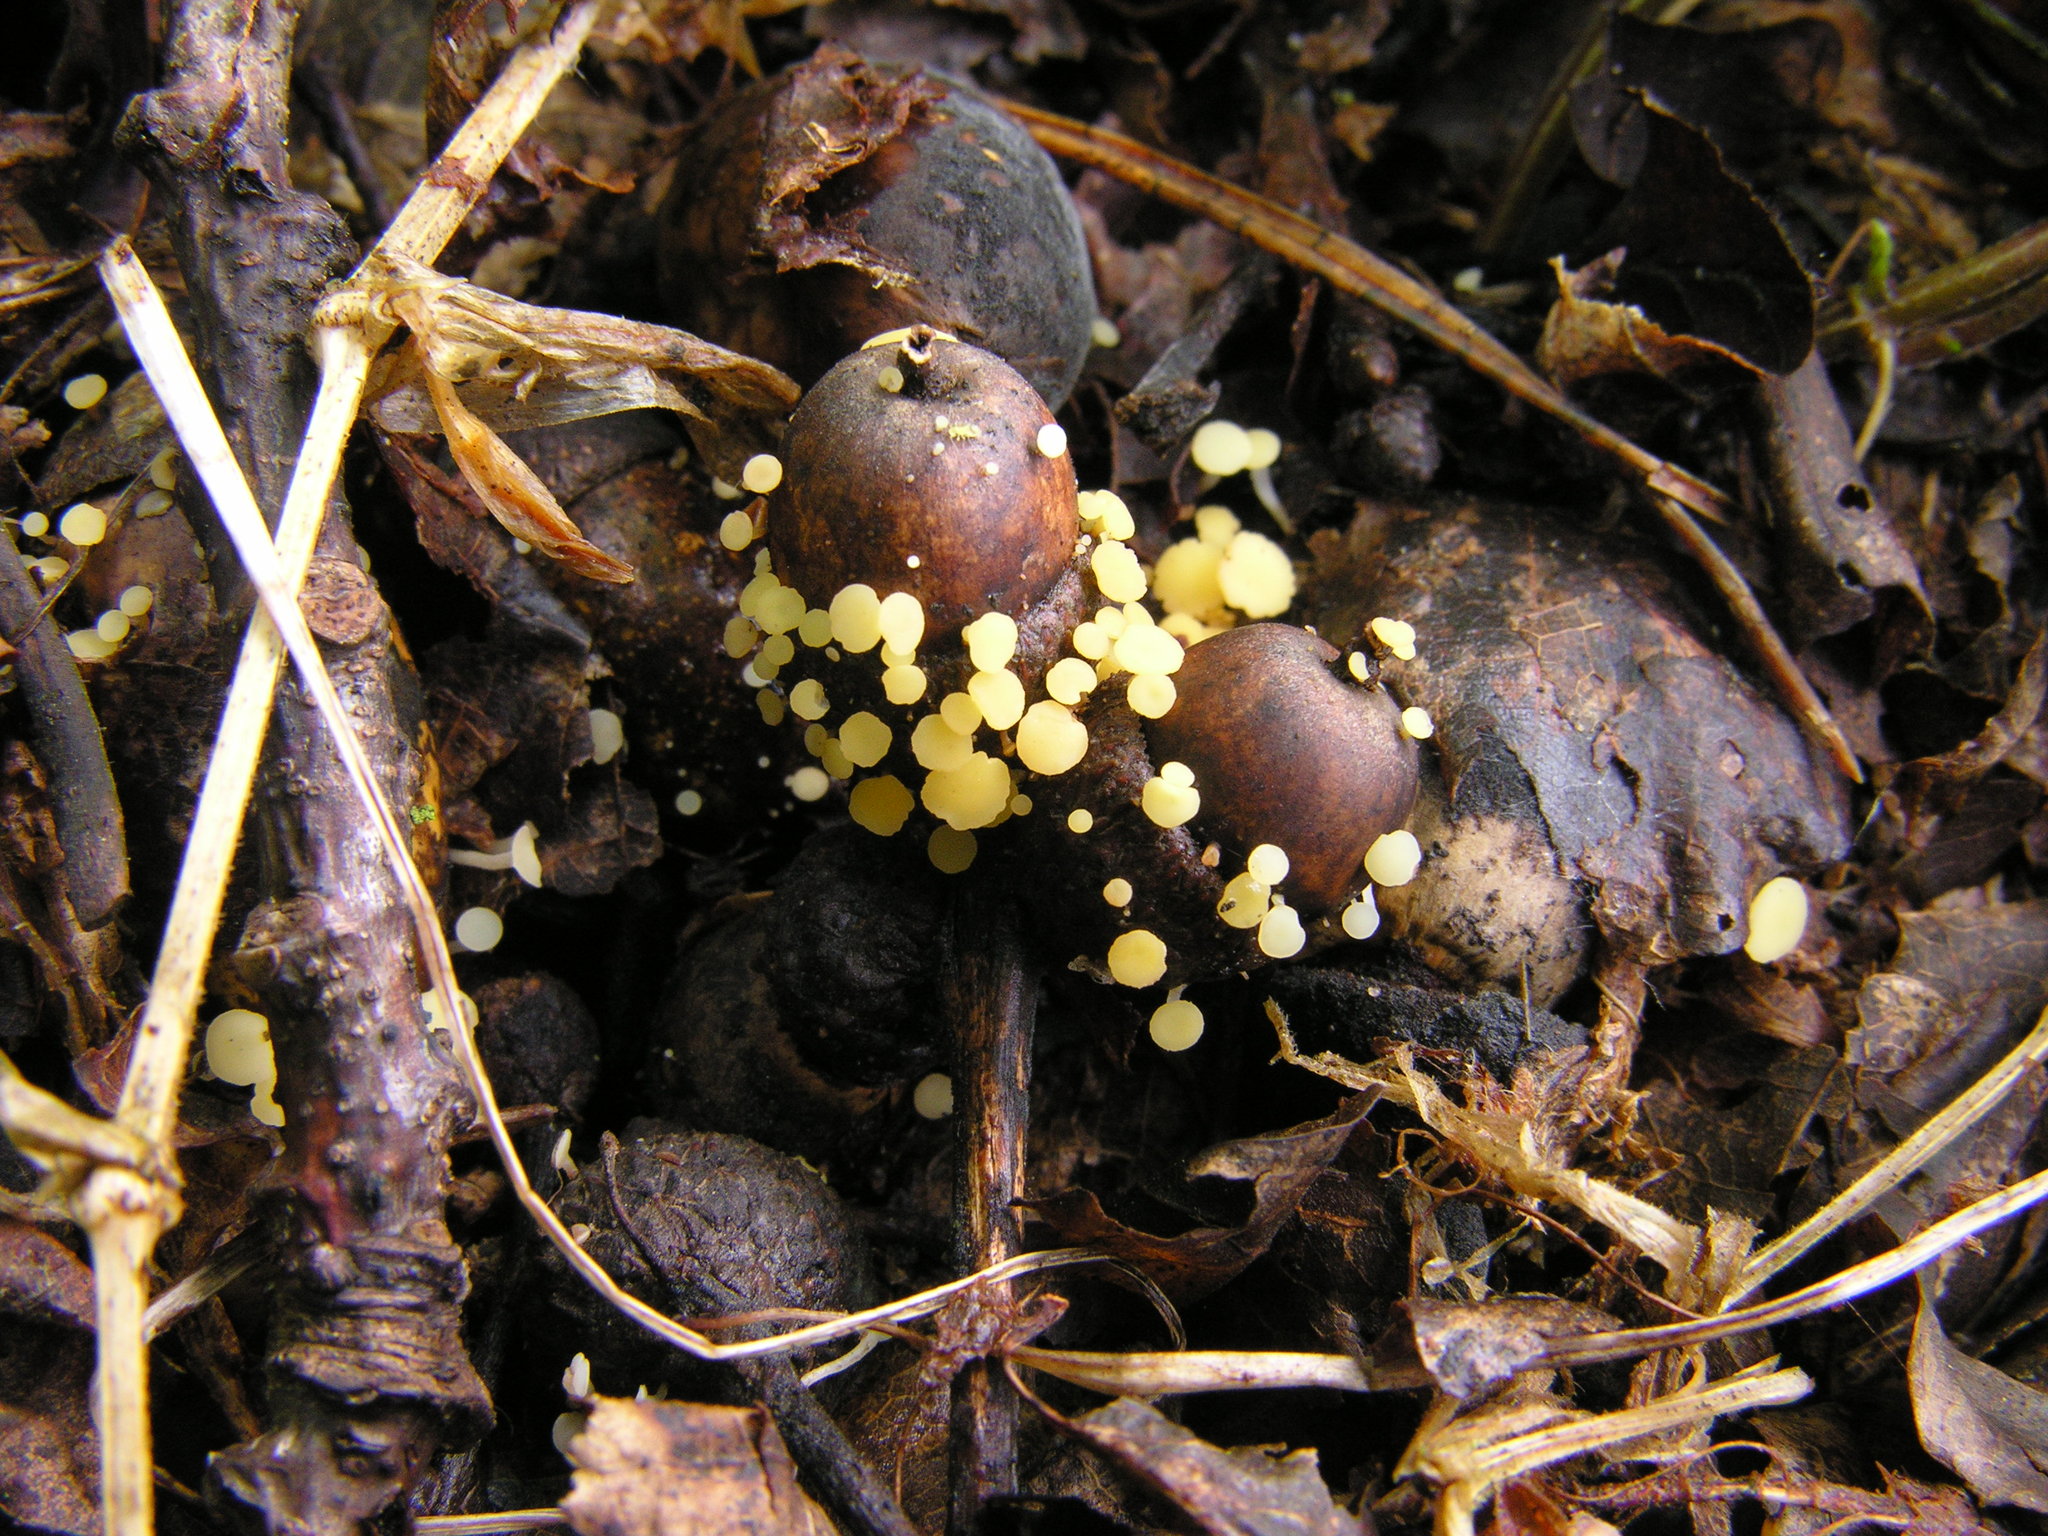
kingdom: Fungi
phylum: Ascomycota
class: Leotiomycetes
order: Helotiales
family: Helotiaceae
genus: Hymenoscyphus
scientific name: Hymenoscyphus fructigenus
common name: Nut disco
